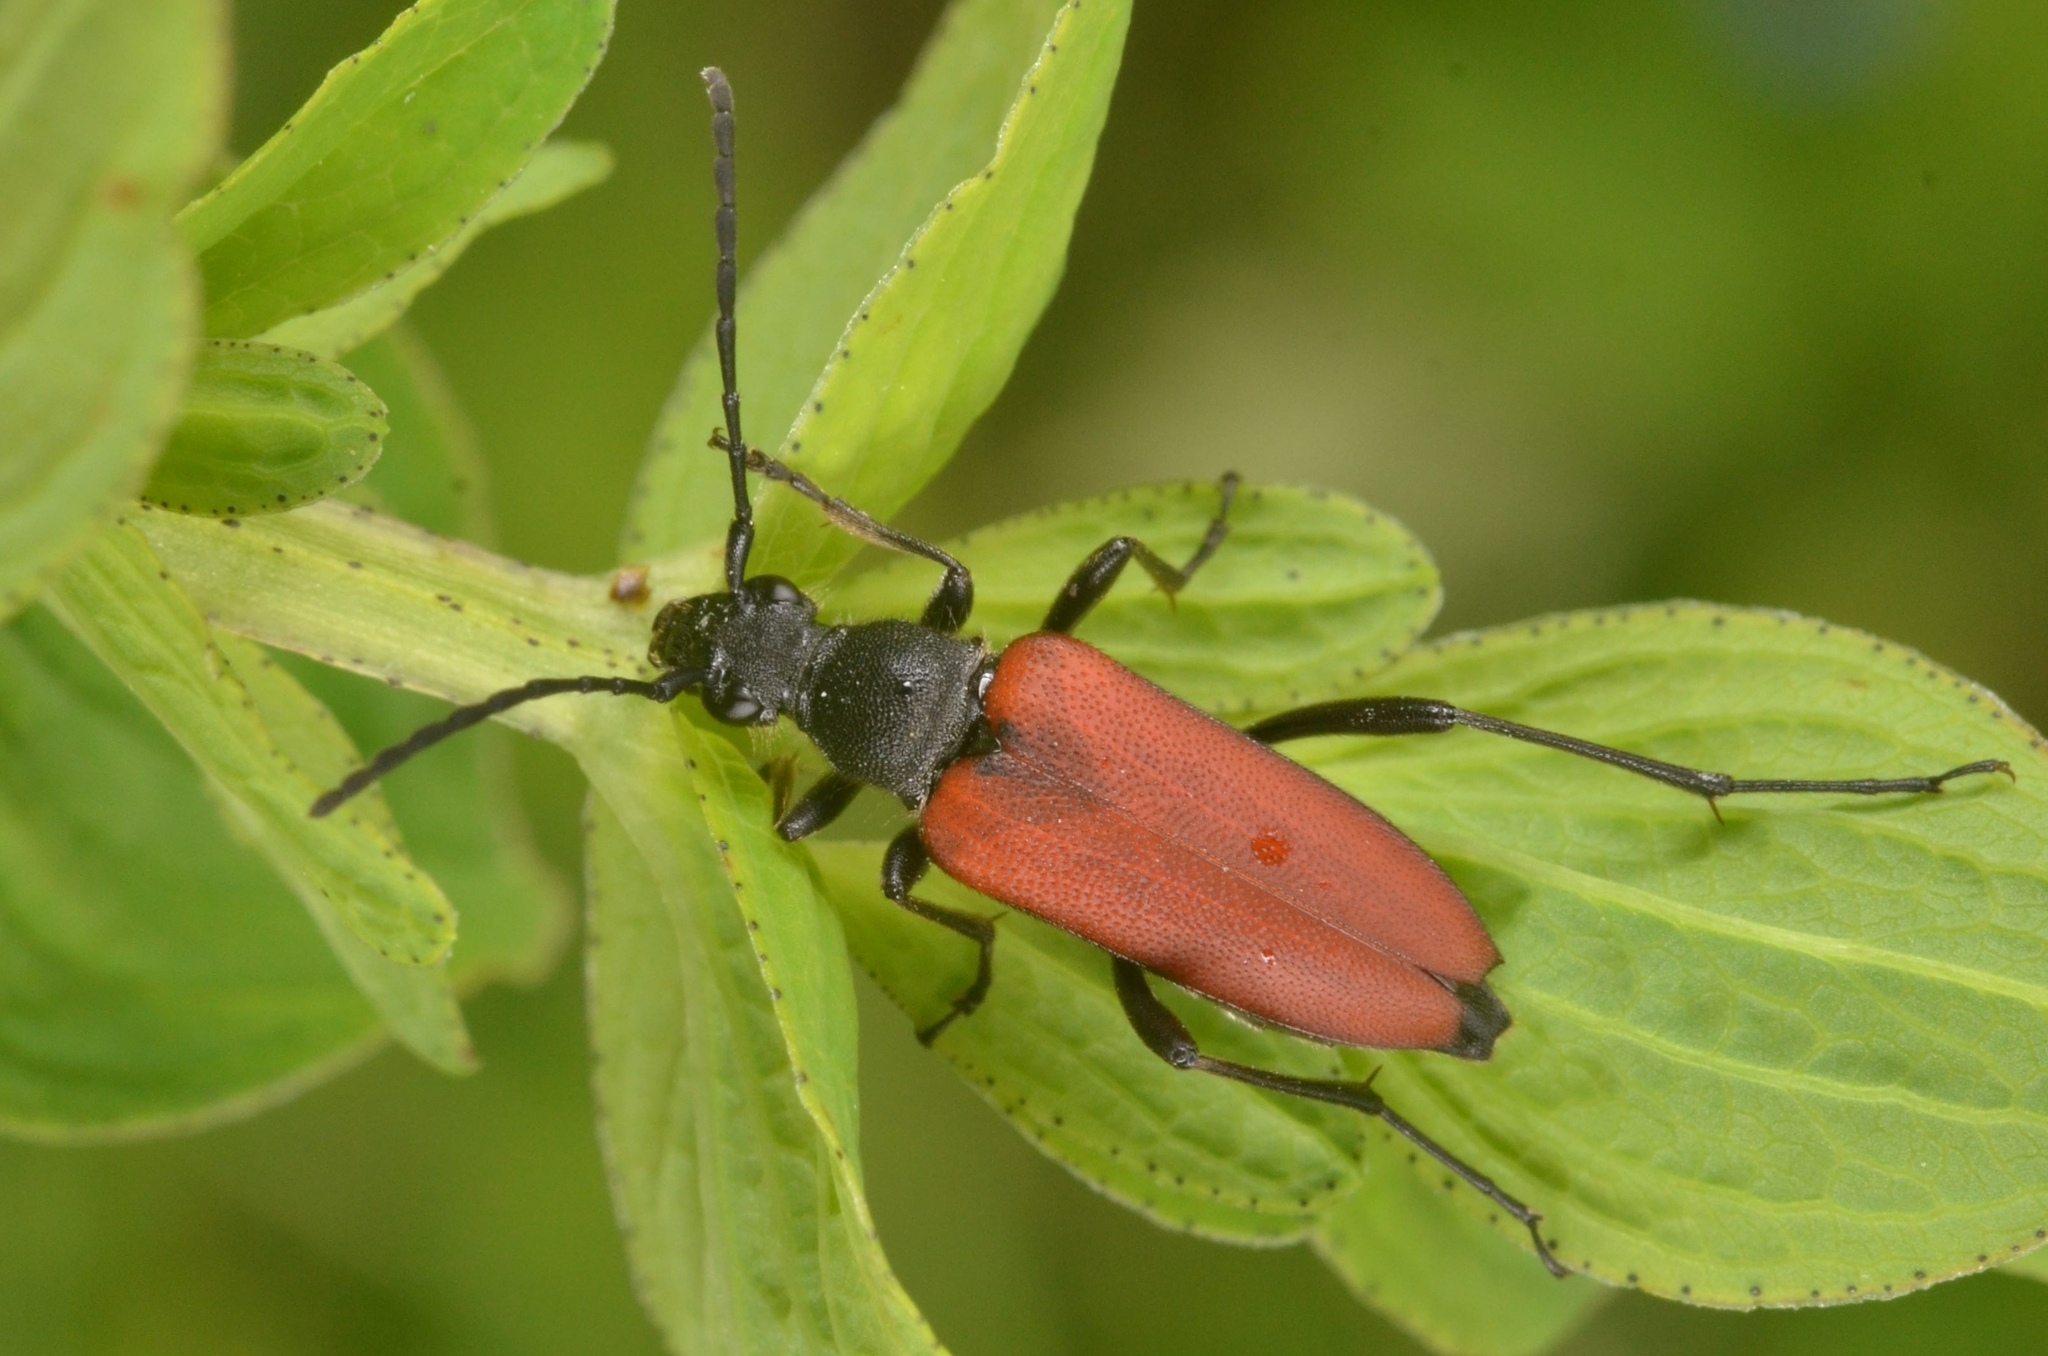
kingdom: Animalia
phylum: Arthropoda
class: Insecta
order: Coleoptera
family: Cerambycidae
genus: Anastrangalia
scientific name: Anastrangalia sanguinolenta
